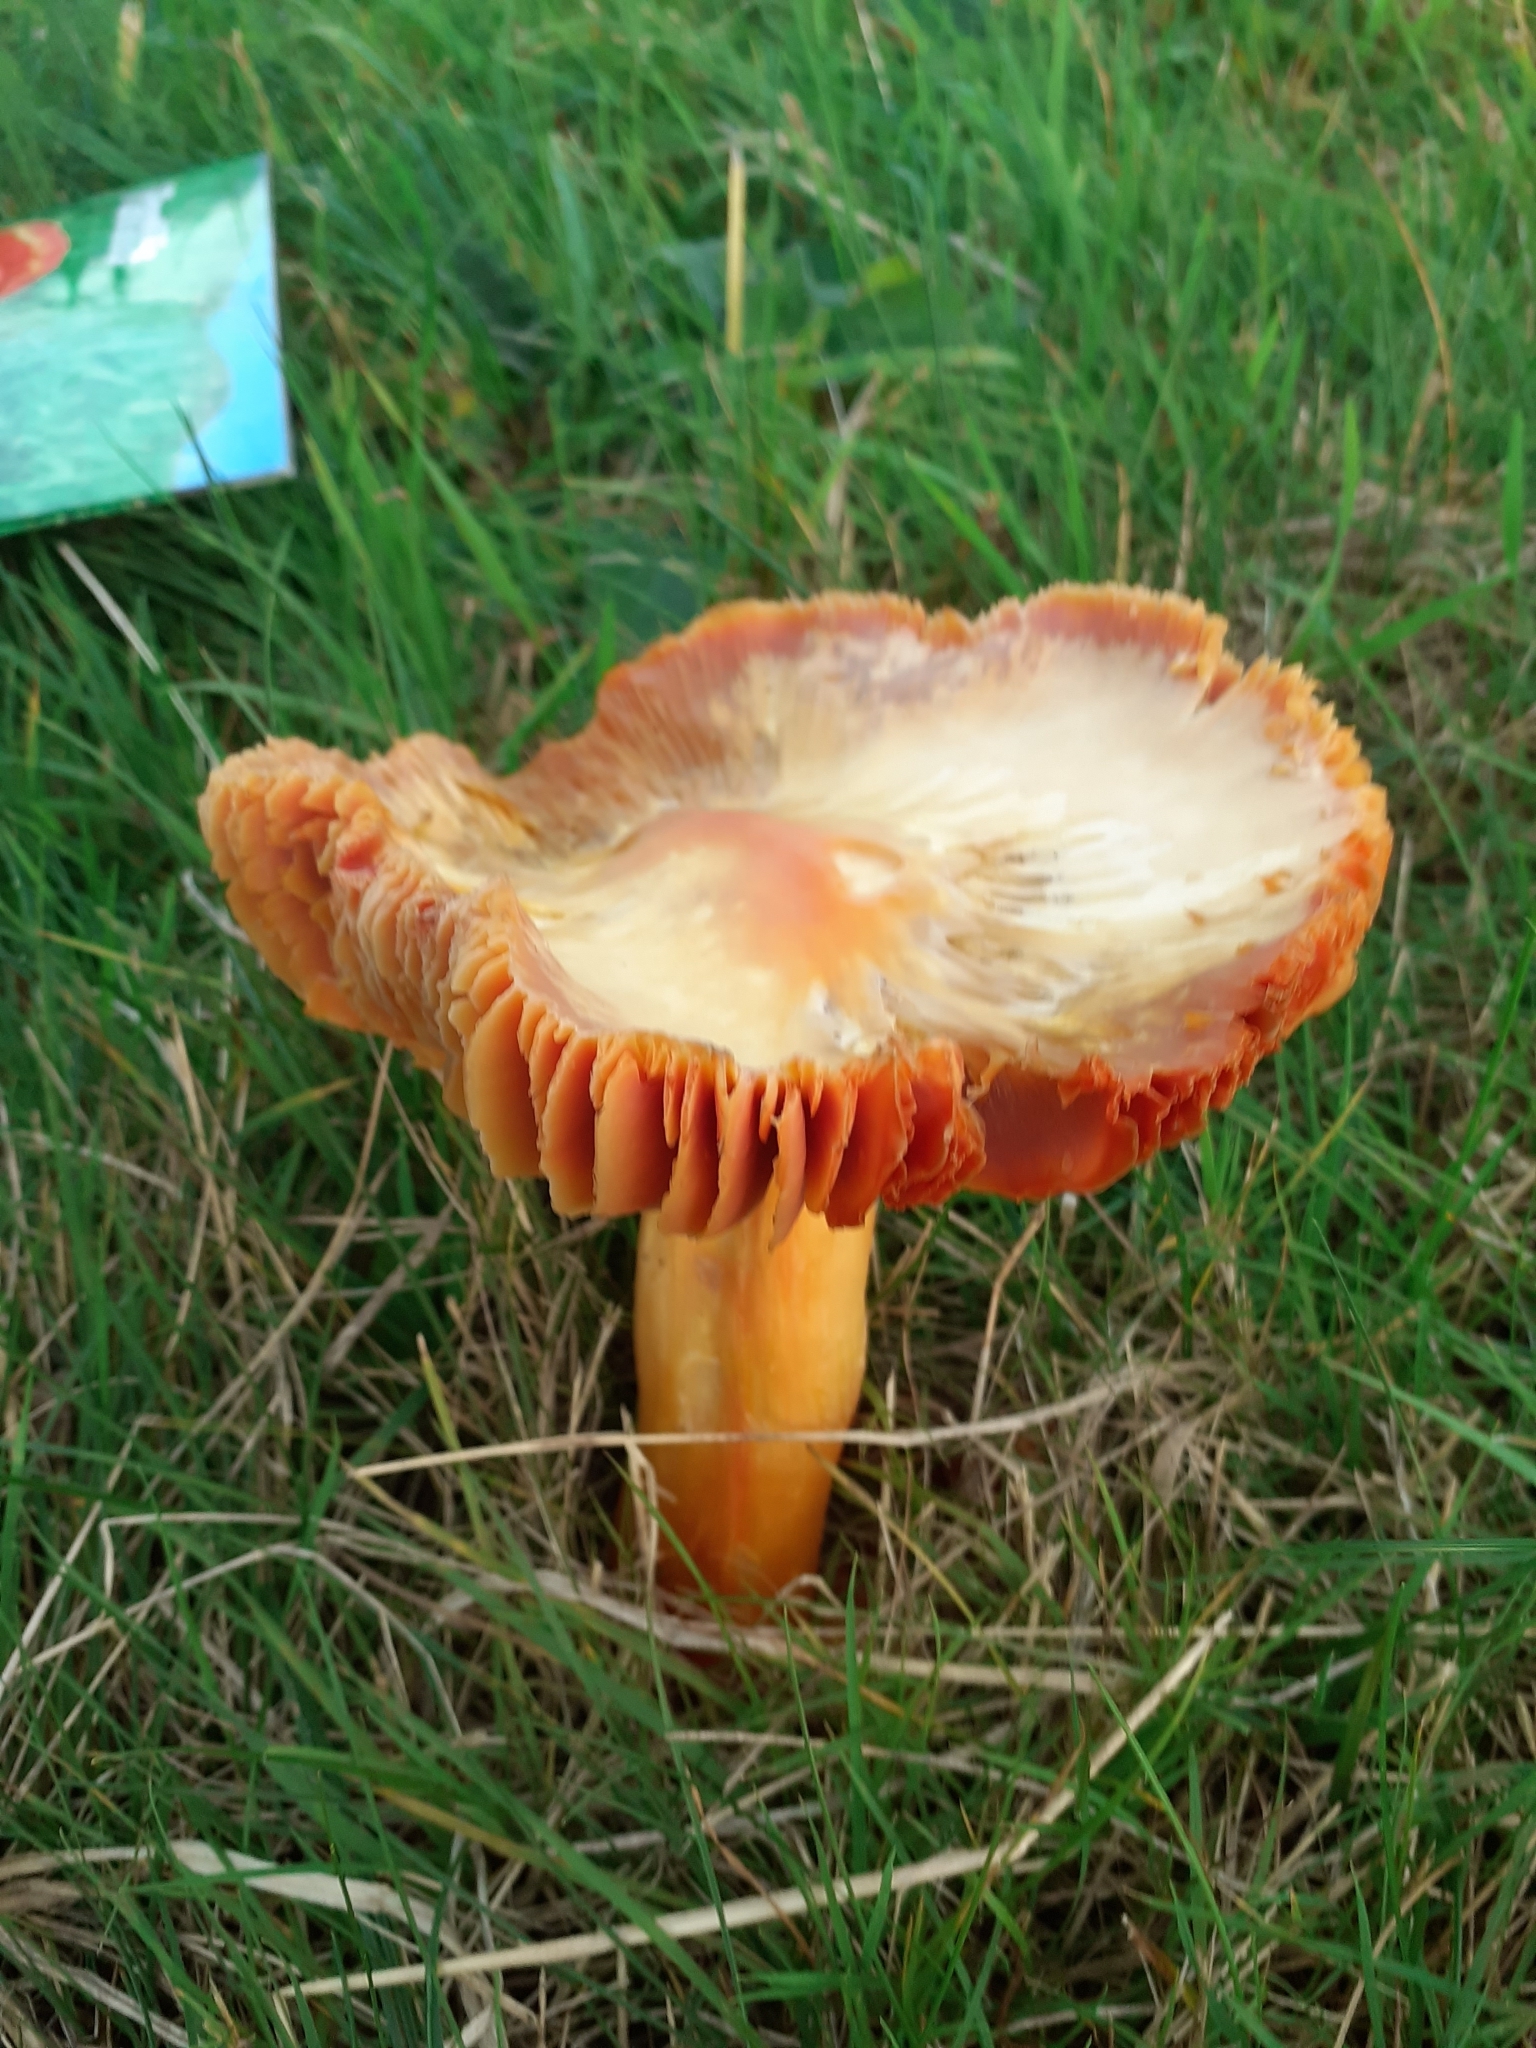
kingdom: Fungi
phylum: Basidiomycota
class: Agaricomycetes
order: Agaricales
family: Hygrophoraceae
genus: Hygrocybe
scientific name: Hygrocybe punicea
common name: Crimson waxcap
